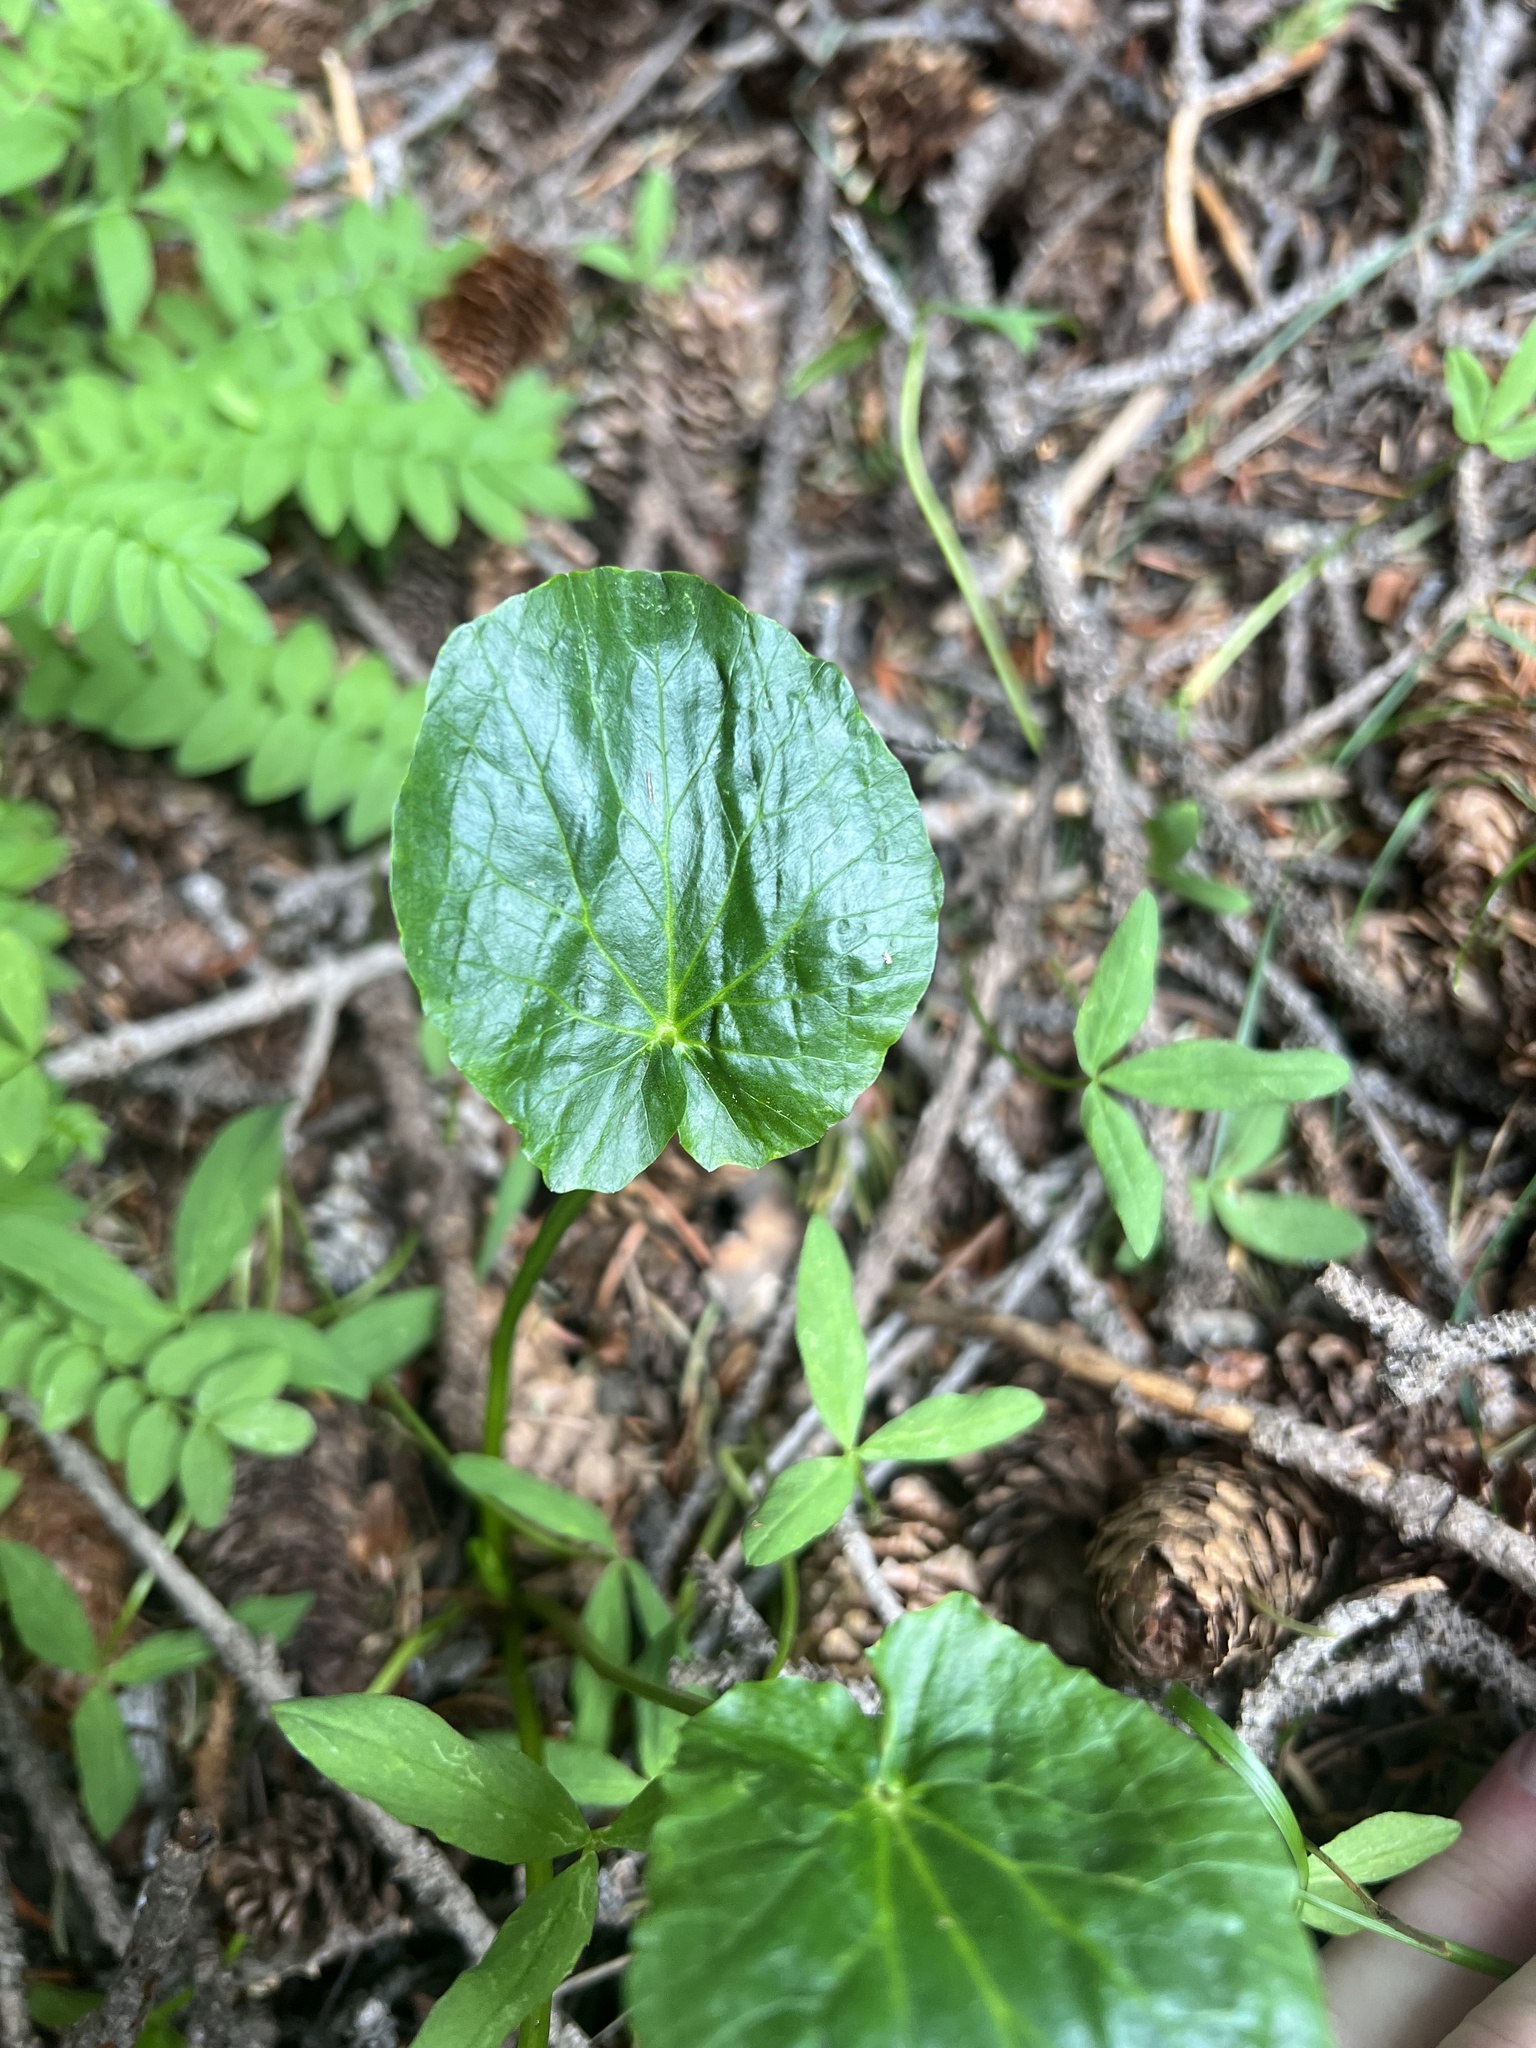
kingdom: Plantae
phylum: Tracheophyta
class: Magnoliopsida
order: Ranunculales
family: Ranunculaceae
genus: Caltha
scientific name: Caltha leptosepala
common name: Elkslip
